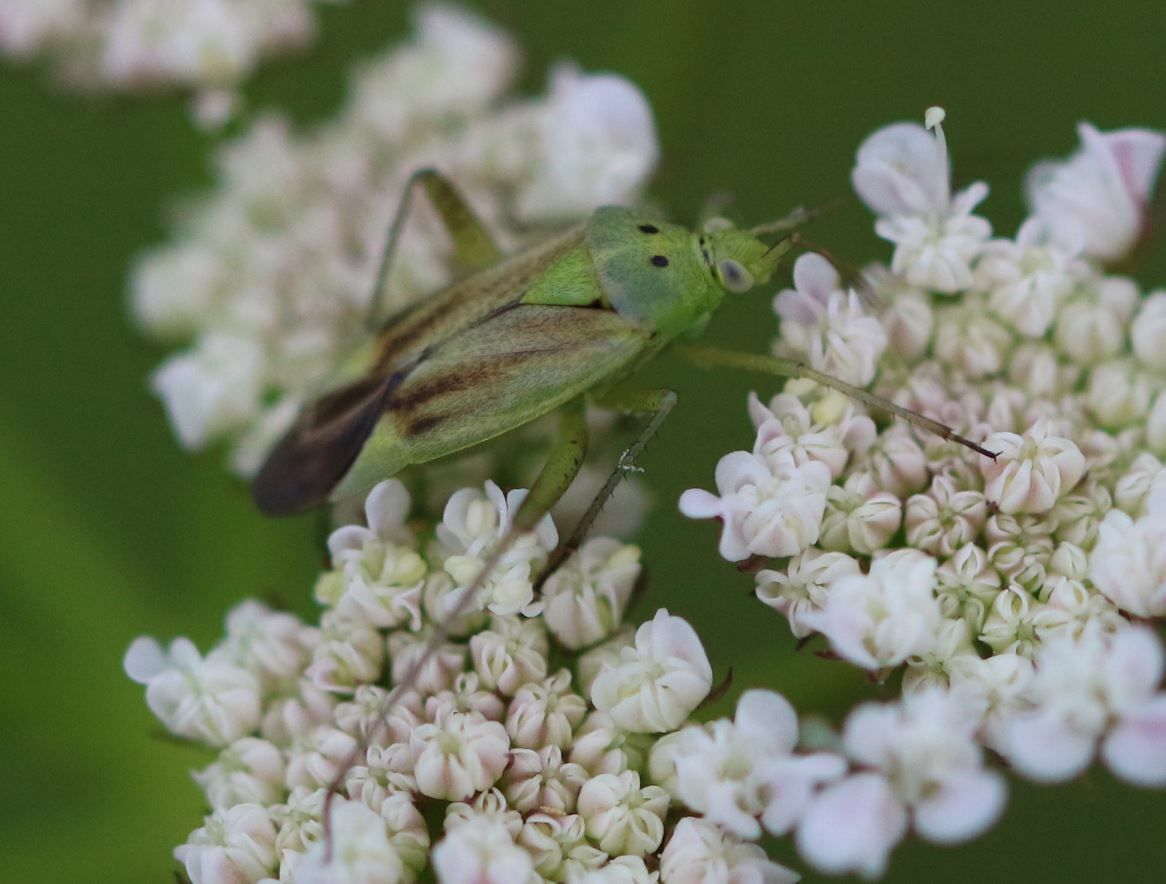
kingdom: Animalia
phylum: Arthropoda
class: Insecta
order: Hemiptera
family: Miridae
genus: Closterotomus
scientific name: Closterotomus norvegicus
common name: Plant bug
